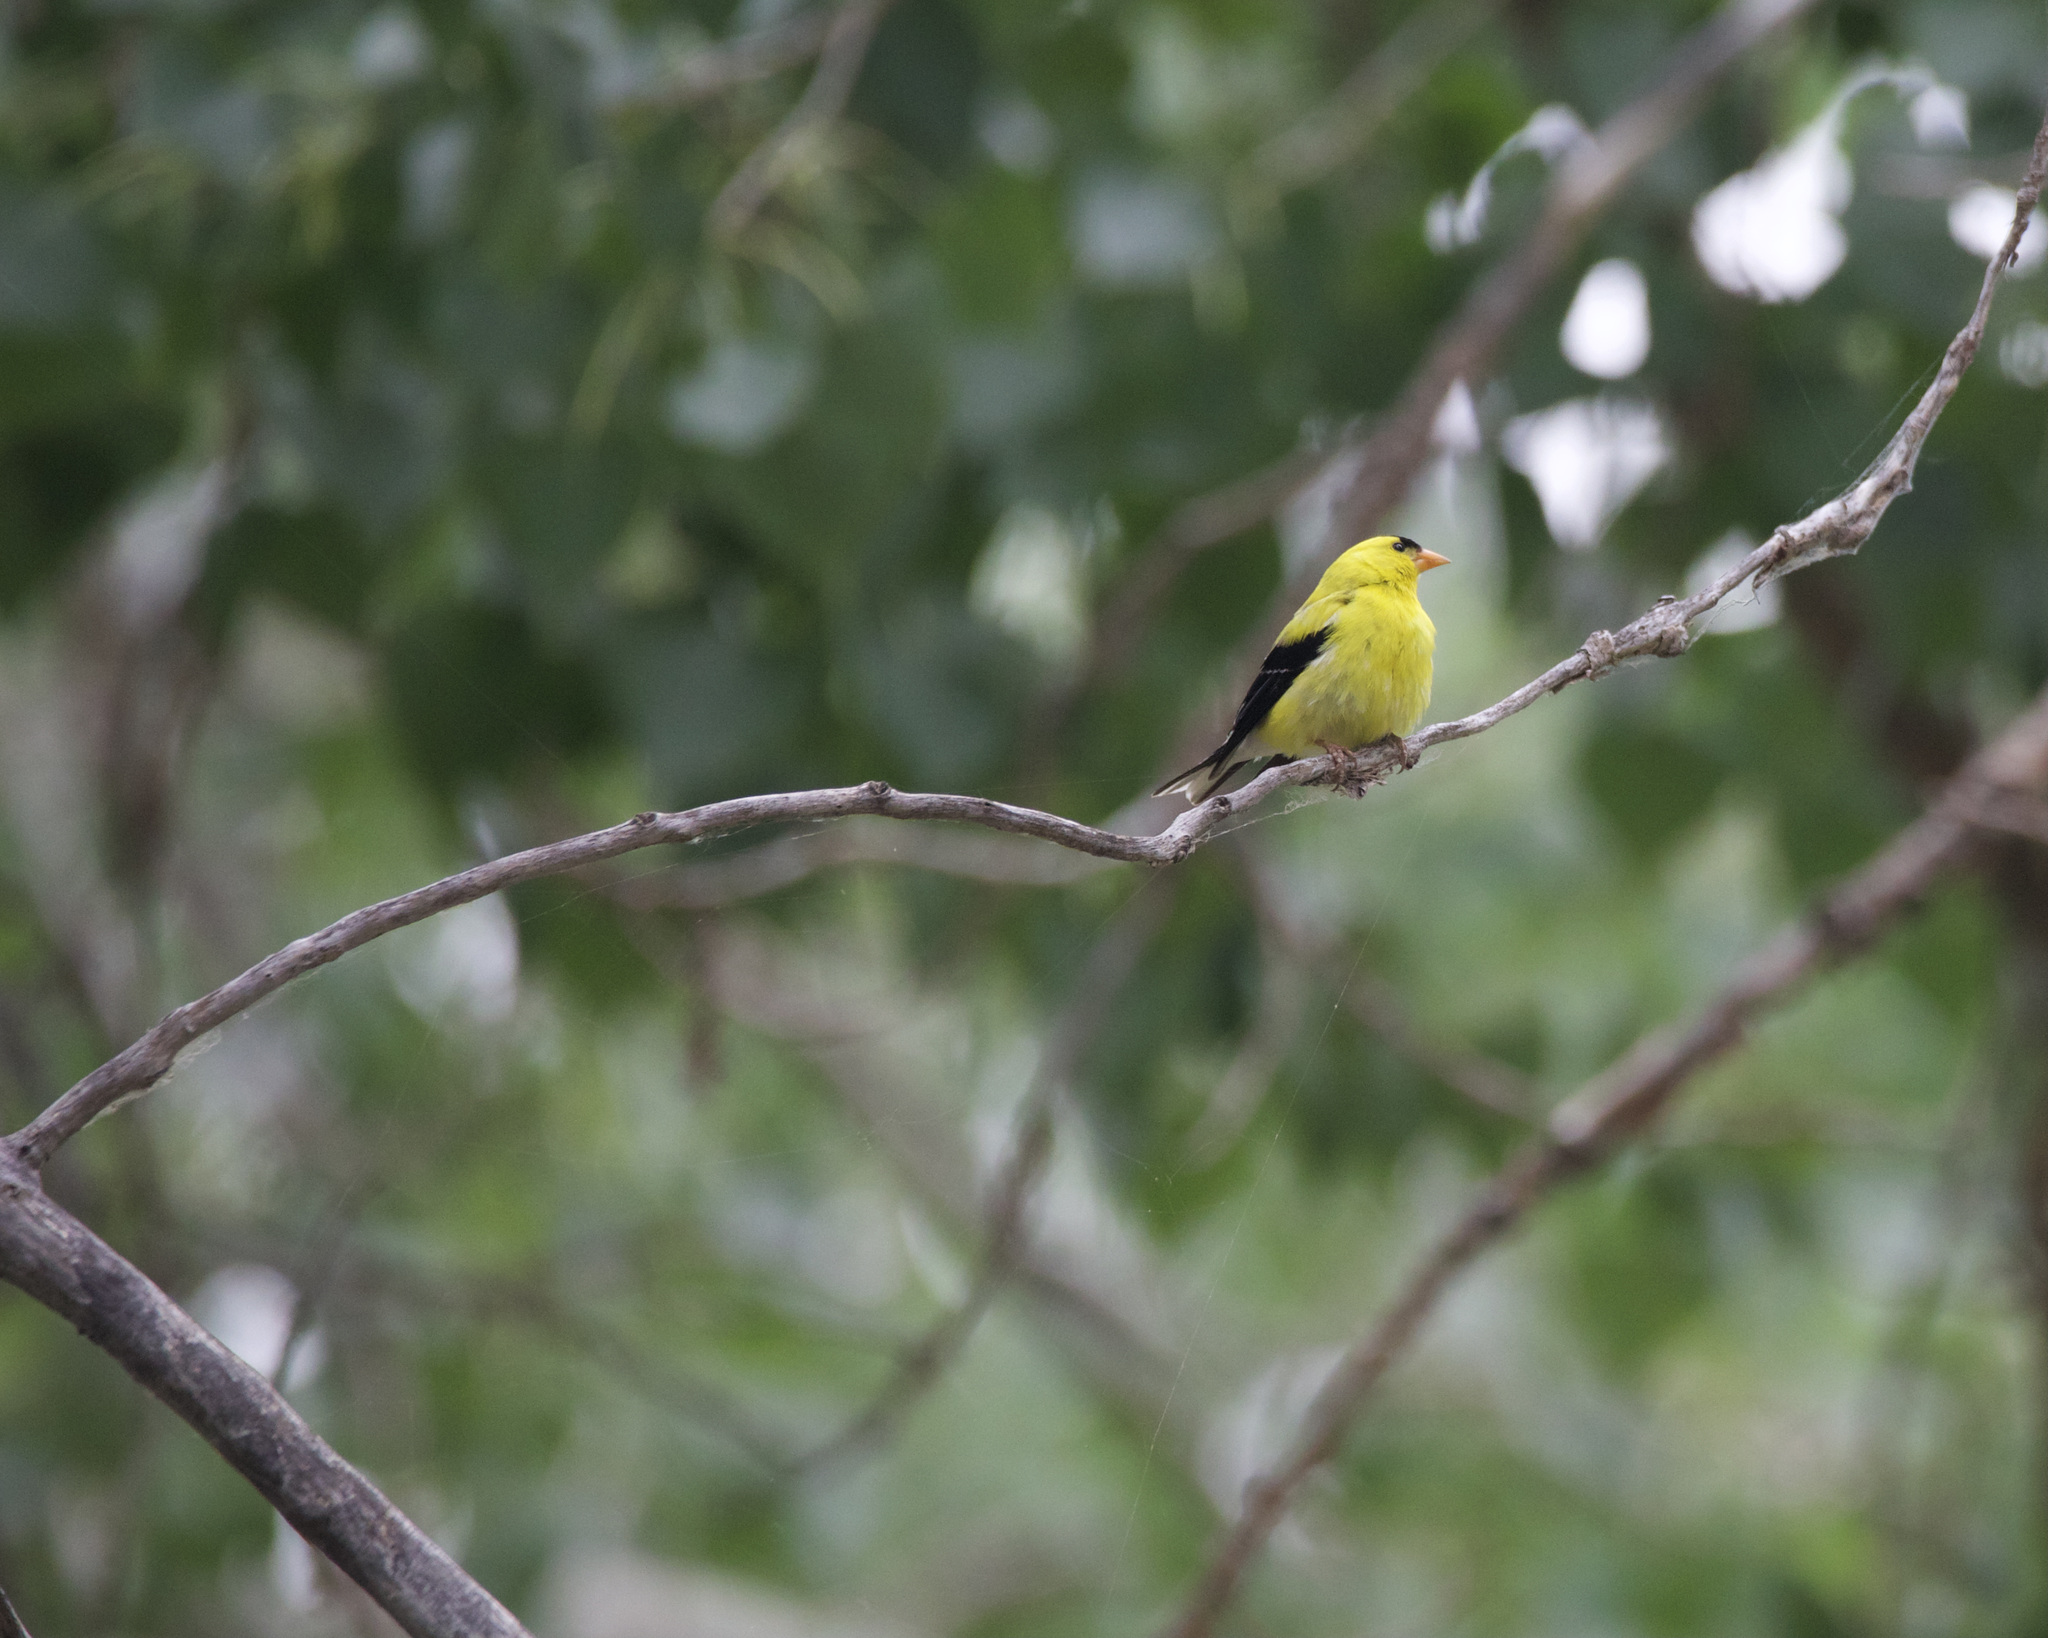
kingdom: Animalia
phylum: Chordata
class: Aves
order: Passeriformes
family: Fringillidae
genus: Spinus
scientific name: Spinus tristis
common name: American goldfinch
